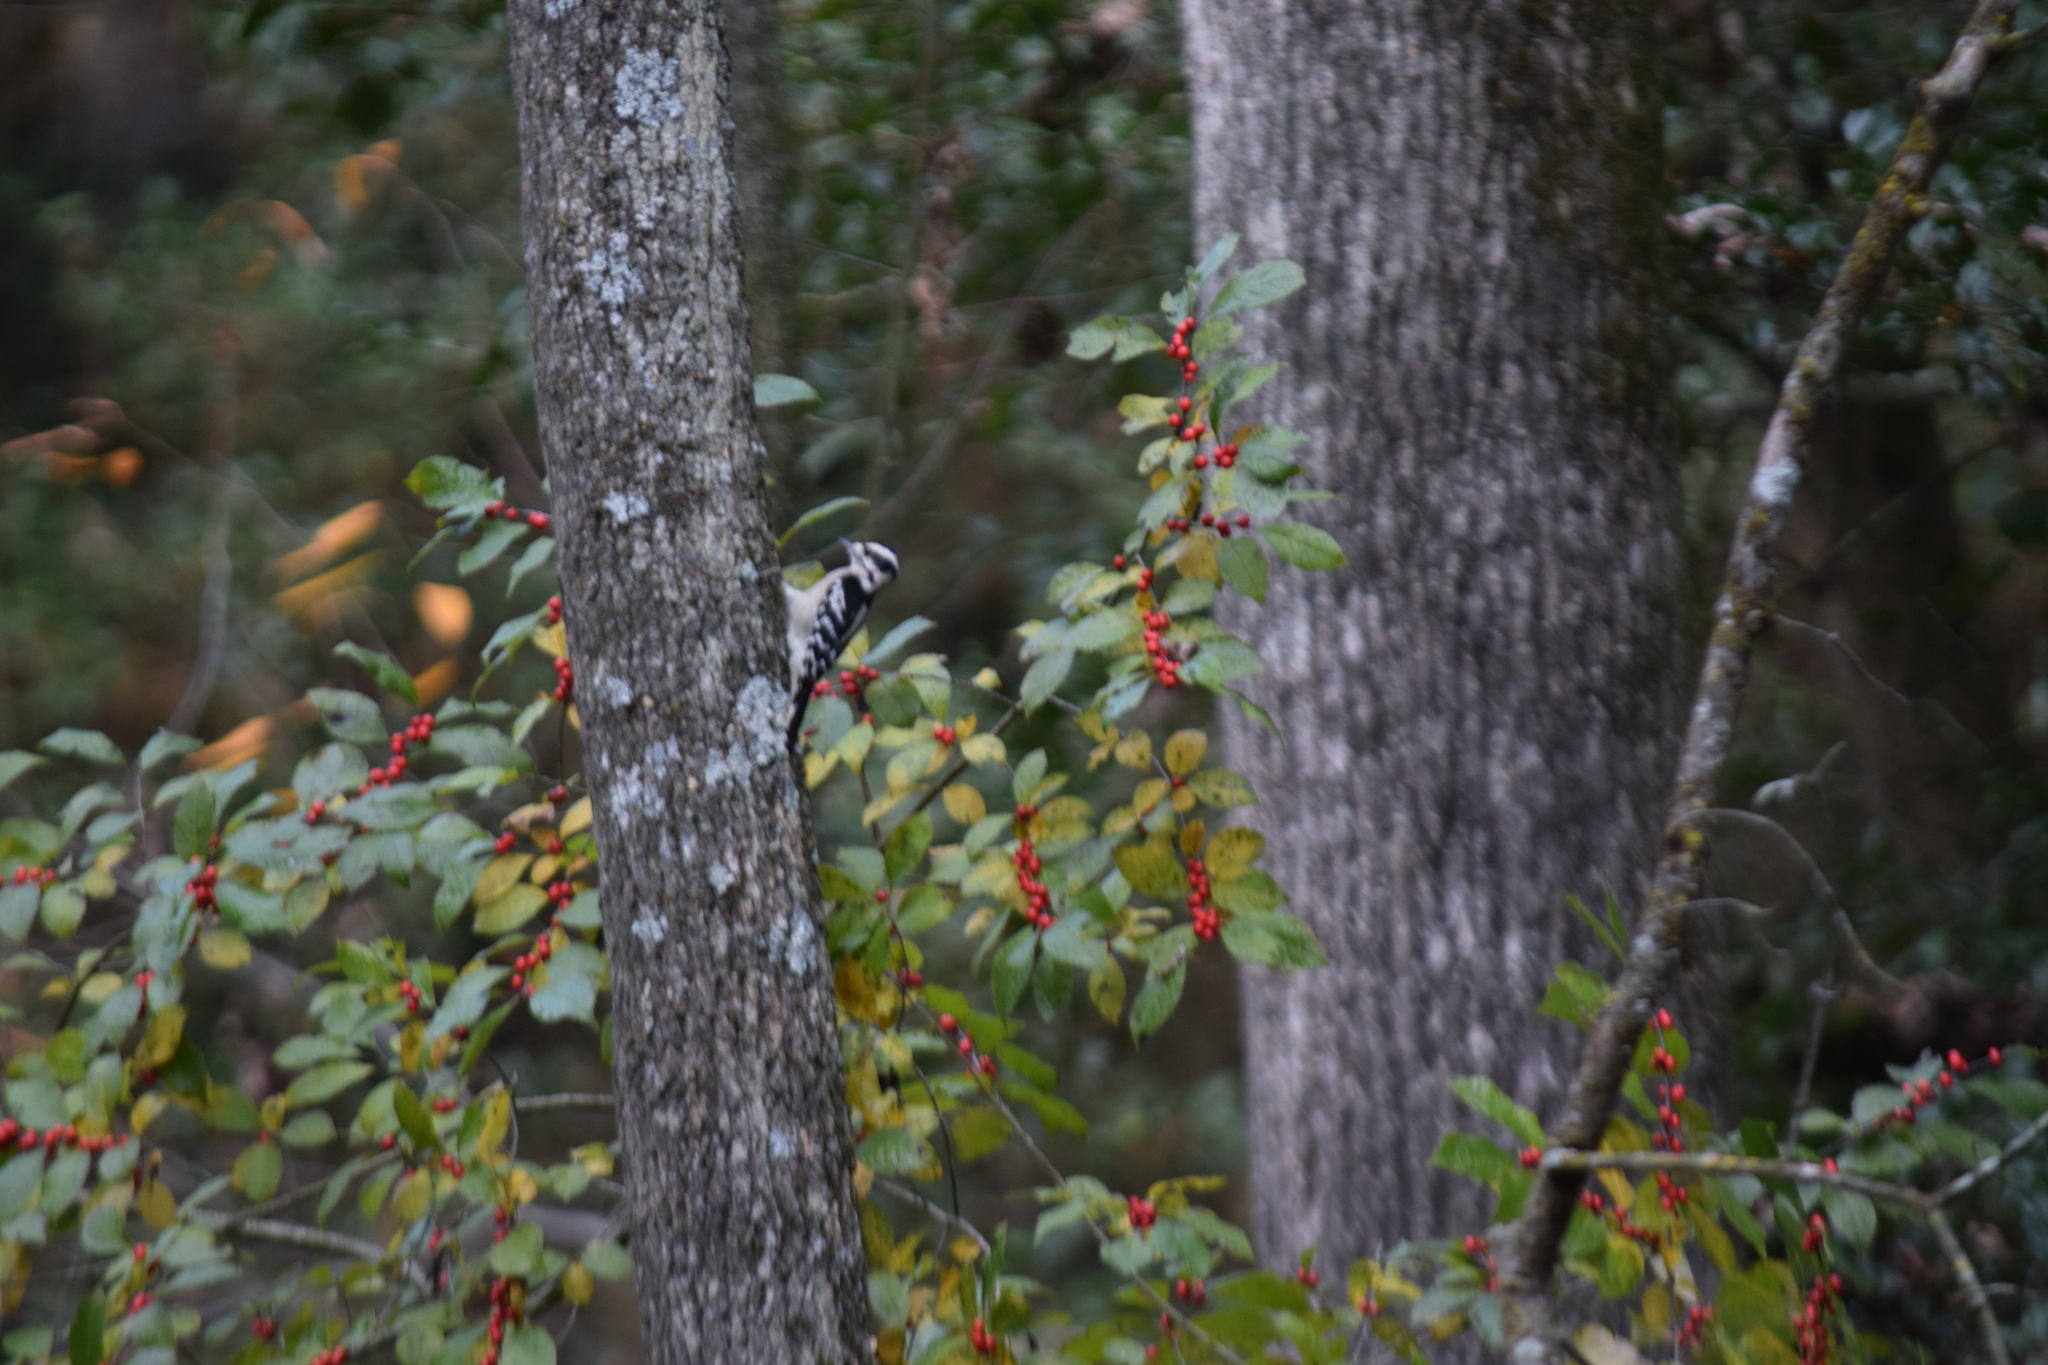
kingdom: Animalia
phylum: Chordata
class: Aves
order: Piciformes
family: Picidae
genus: Dryobates
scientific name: Dryobates pubescens
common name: Downy woodpecker
